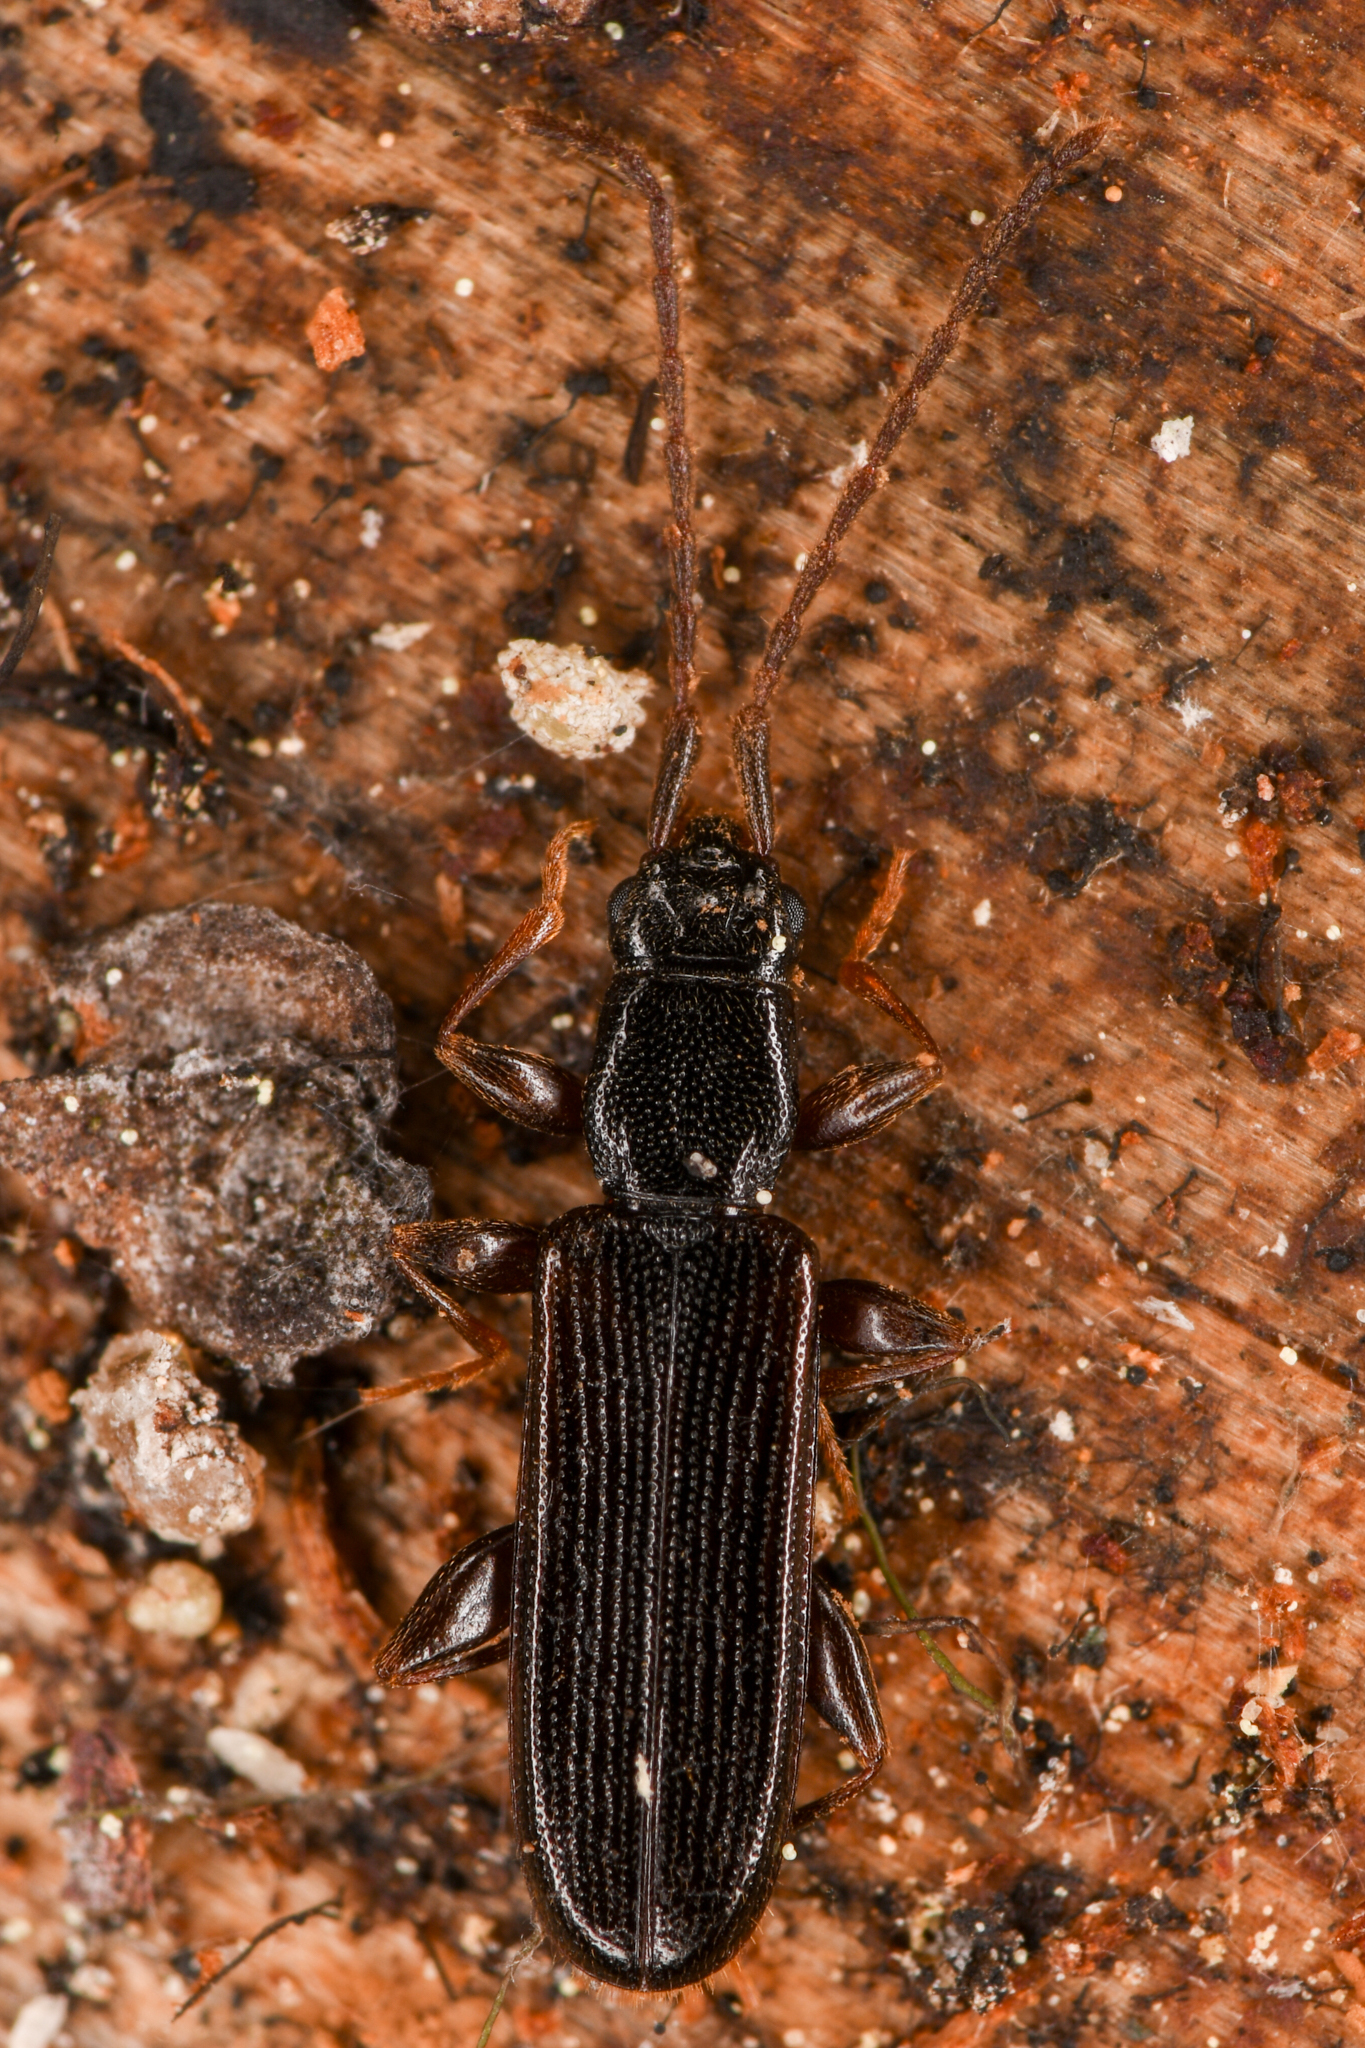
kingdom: Animalia
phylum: Arthropoda
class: Insecta
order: Coleoptera
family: Silvanidae
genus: Dendrophagus
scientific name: Dendrophagus cygnaei
